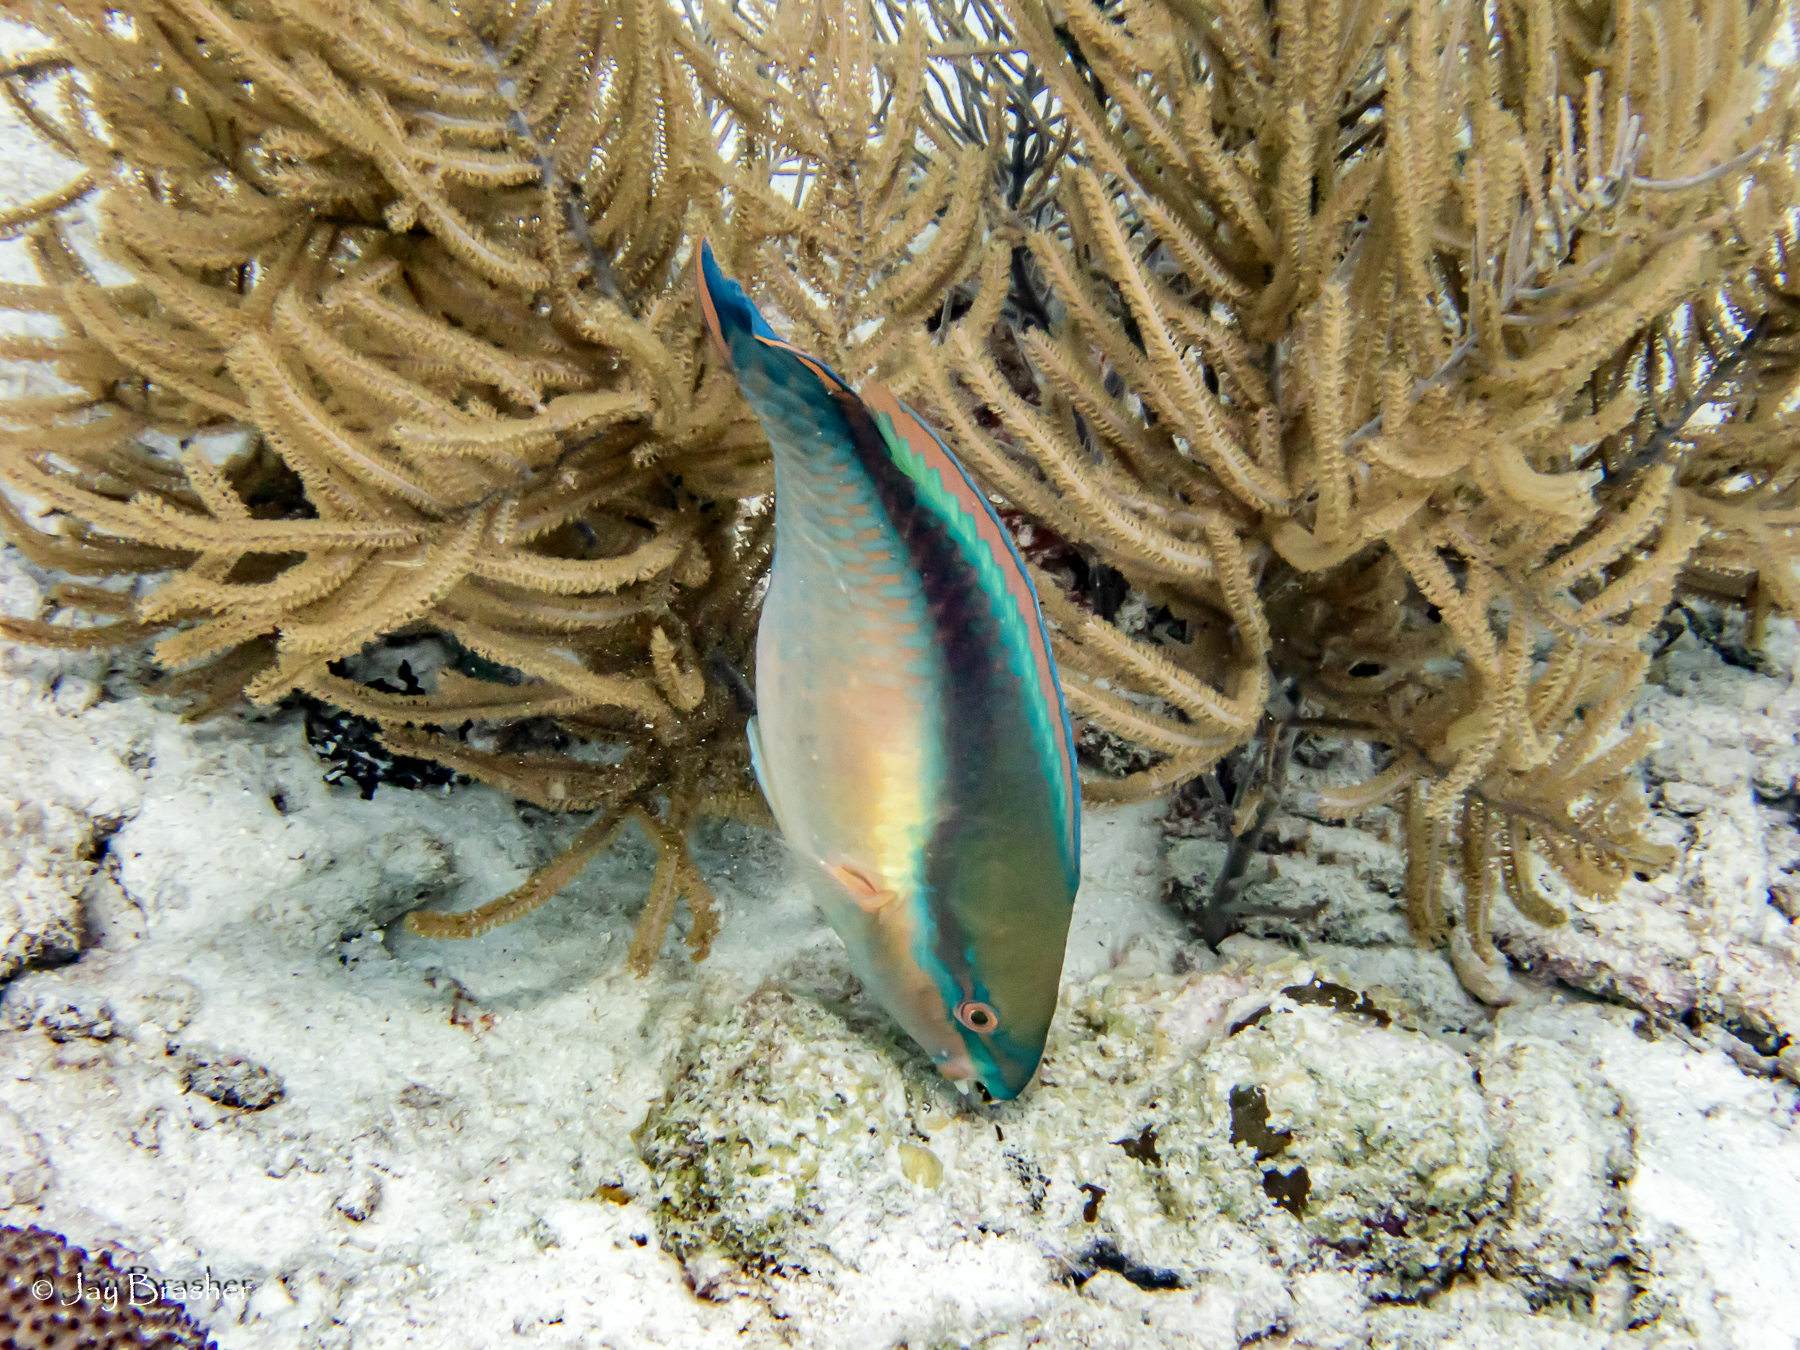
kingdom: Animalia
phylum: Chordata
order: Perciformes
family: Scaridae
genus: Scarus
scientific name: Scarus taeniopterus
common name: Princess parrotfish
